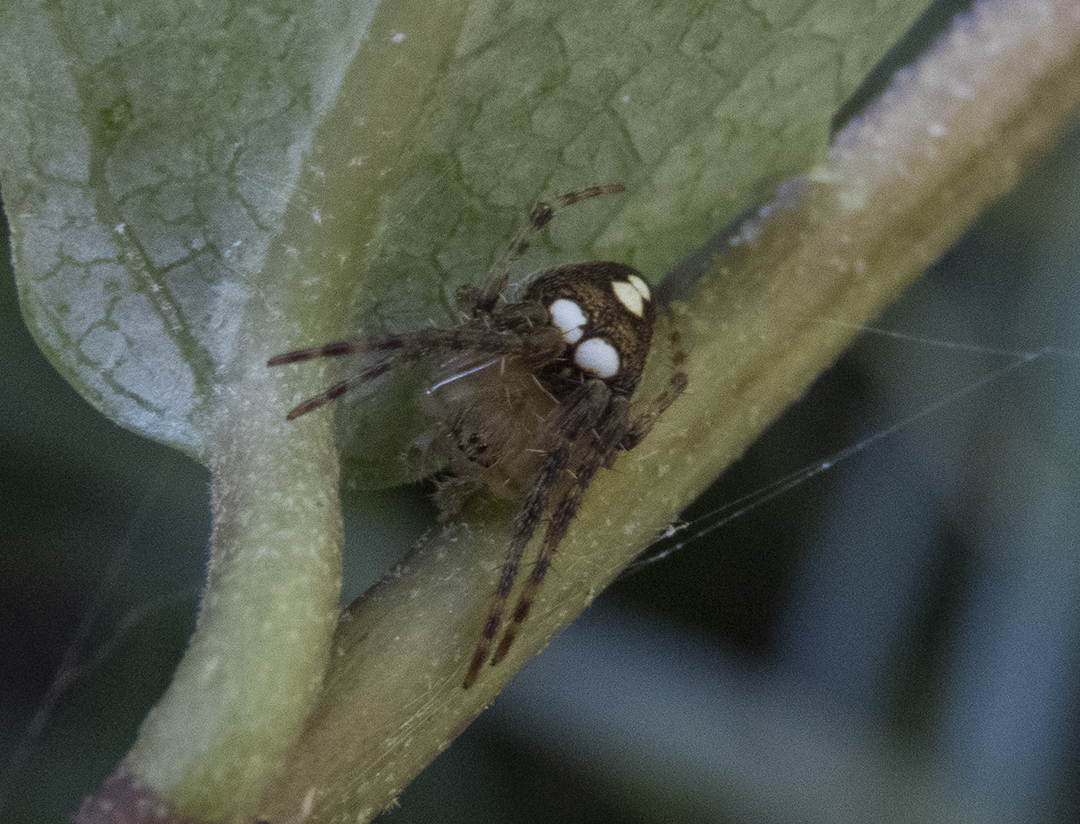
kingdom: Animalia
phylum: Arthropoda
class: Arachnida
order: Araneae
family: Araneidae
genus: Zealaranea
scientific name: Zealaranea trinotata
